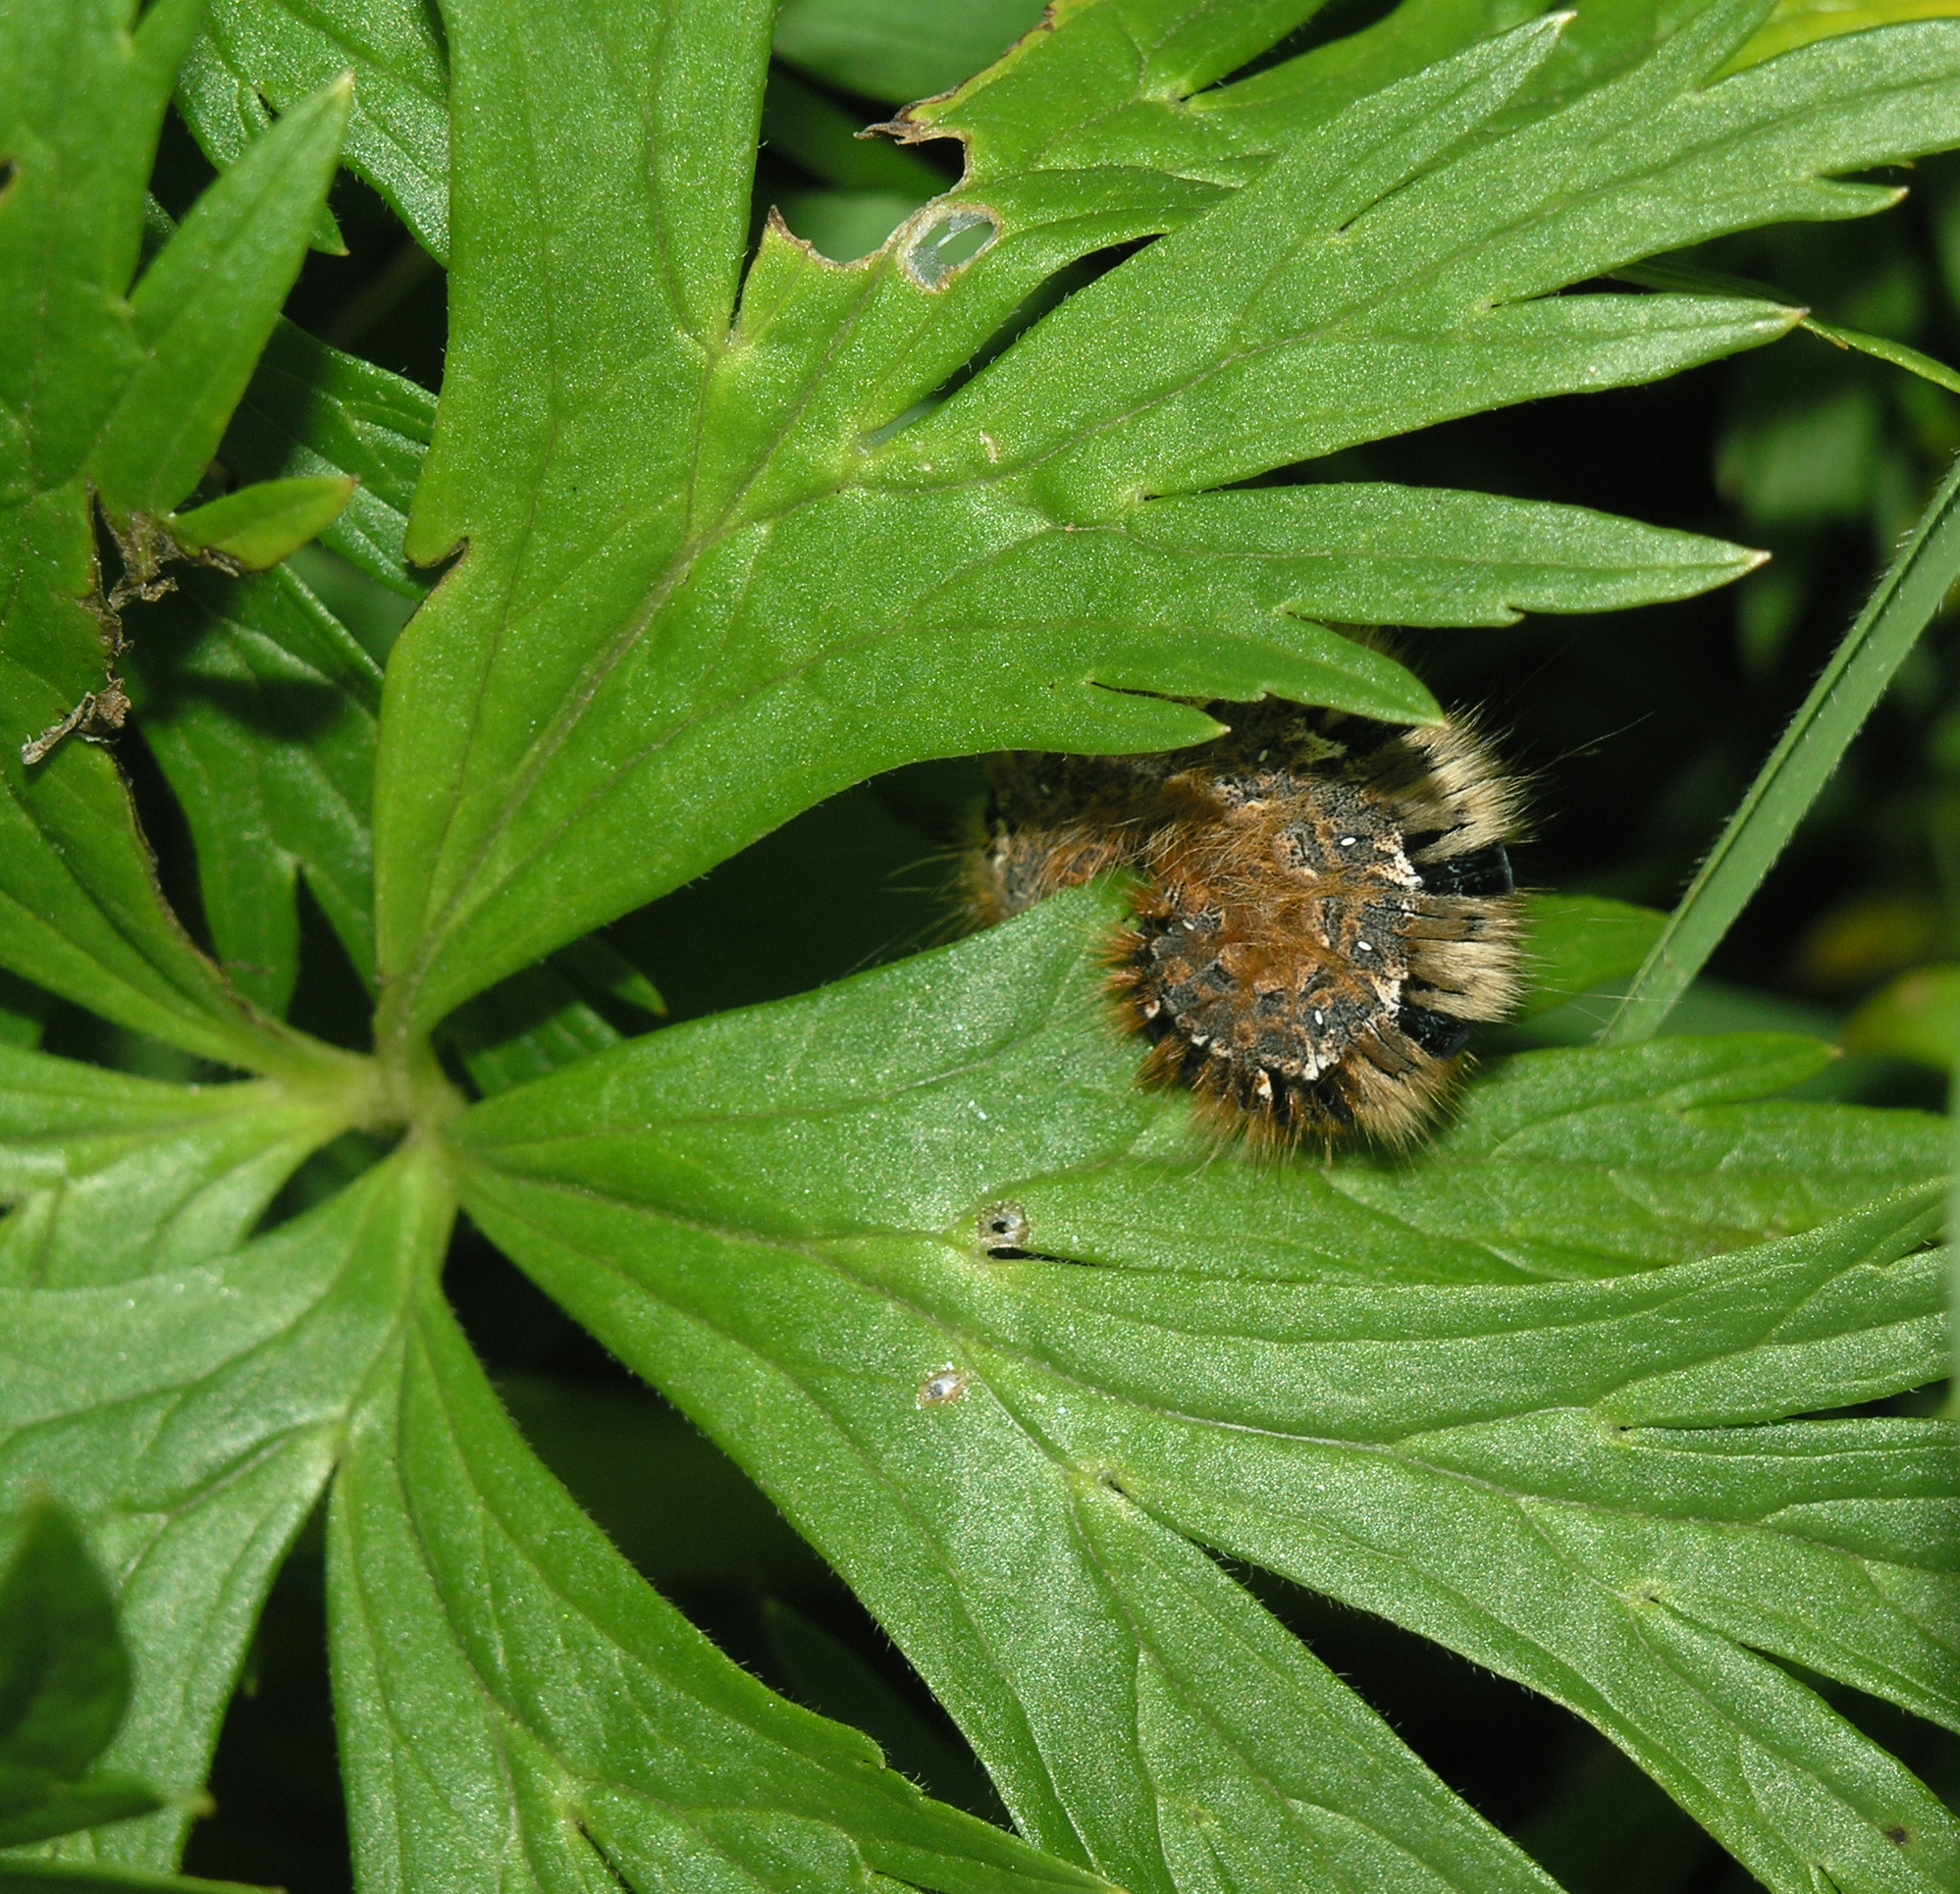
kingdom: Animalia
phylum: Arthropoda
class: Insecta
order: Lepidoptera
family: Lasiocampidae
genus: Lasiocampa
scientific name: Lasiocampa quercus
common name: Oak eggar
